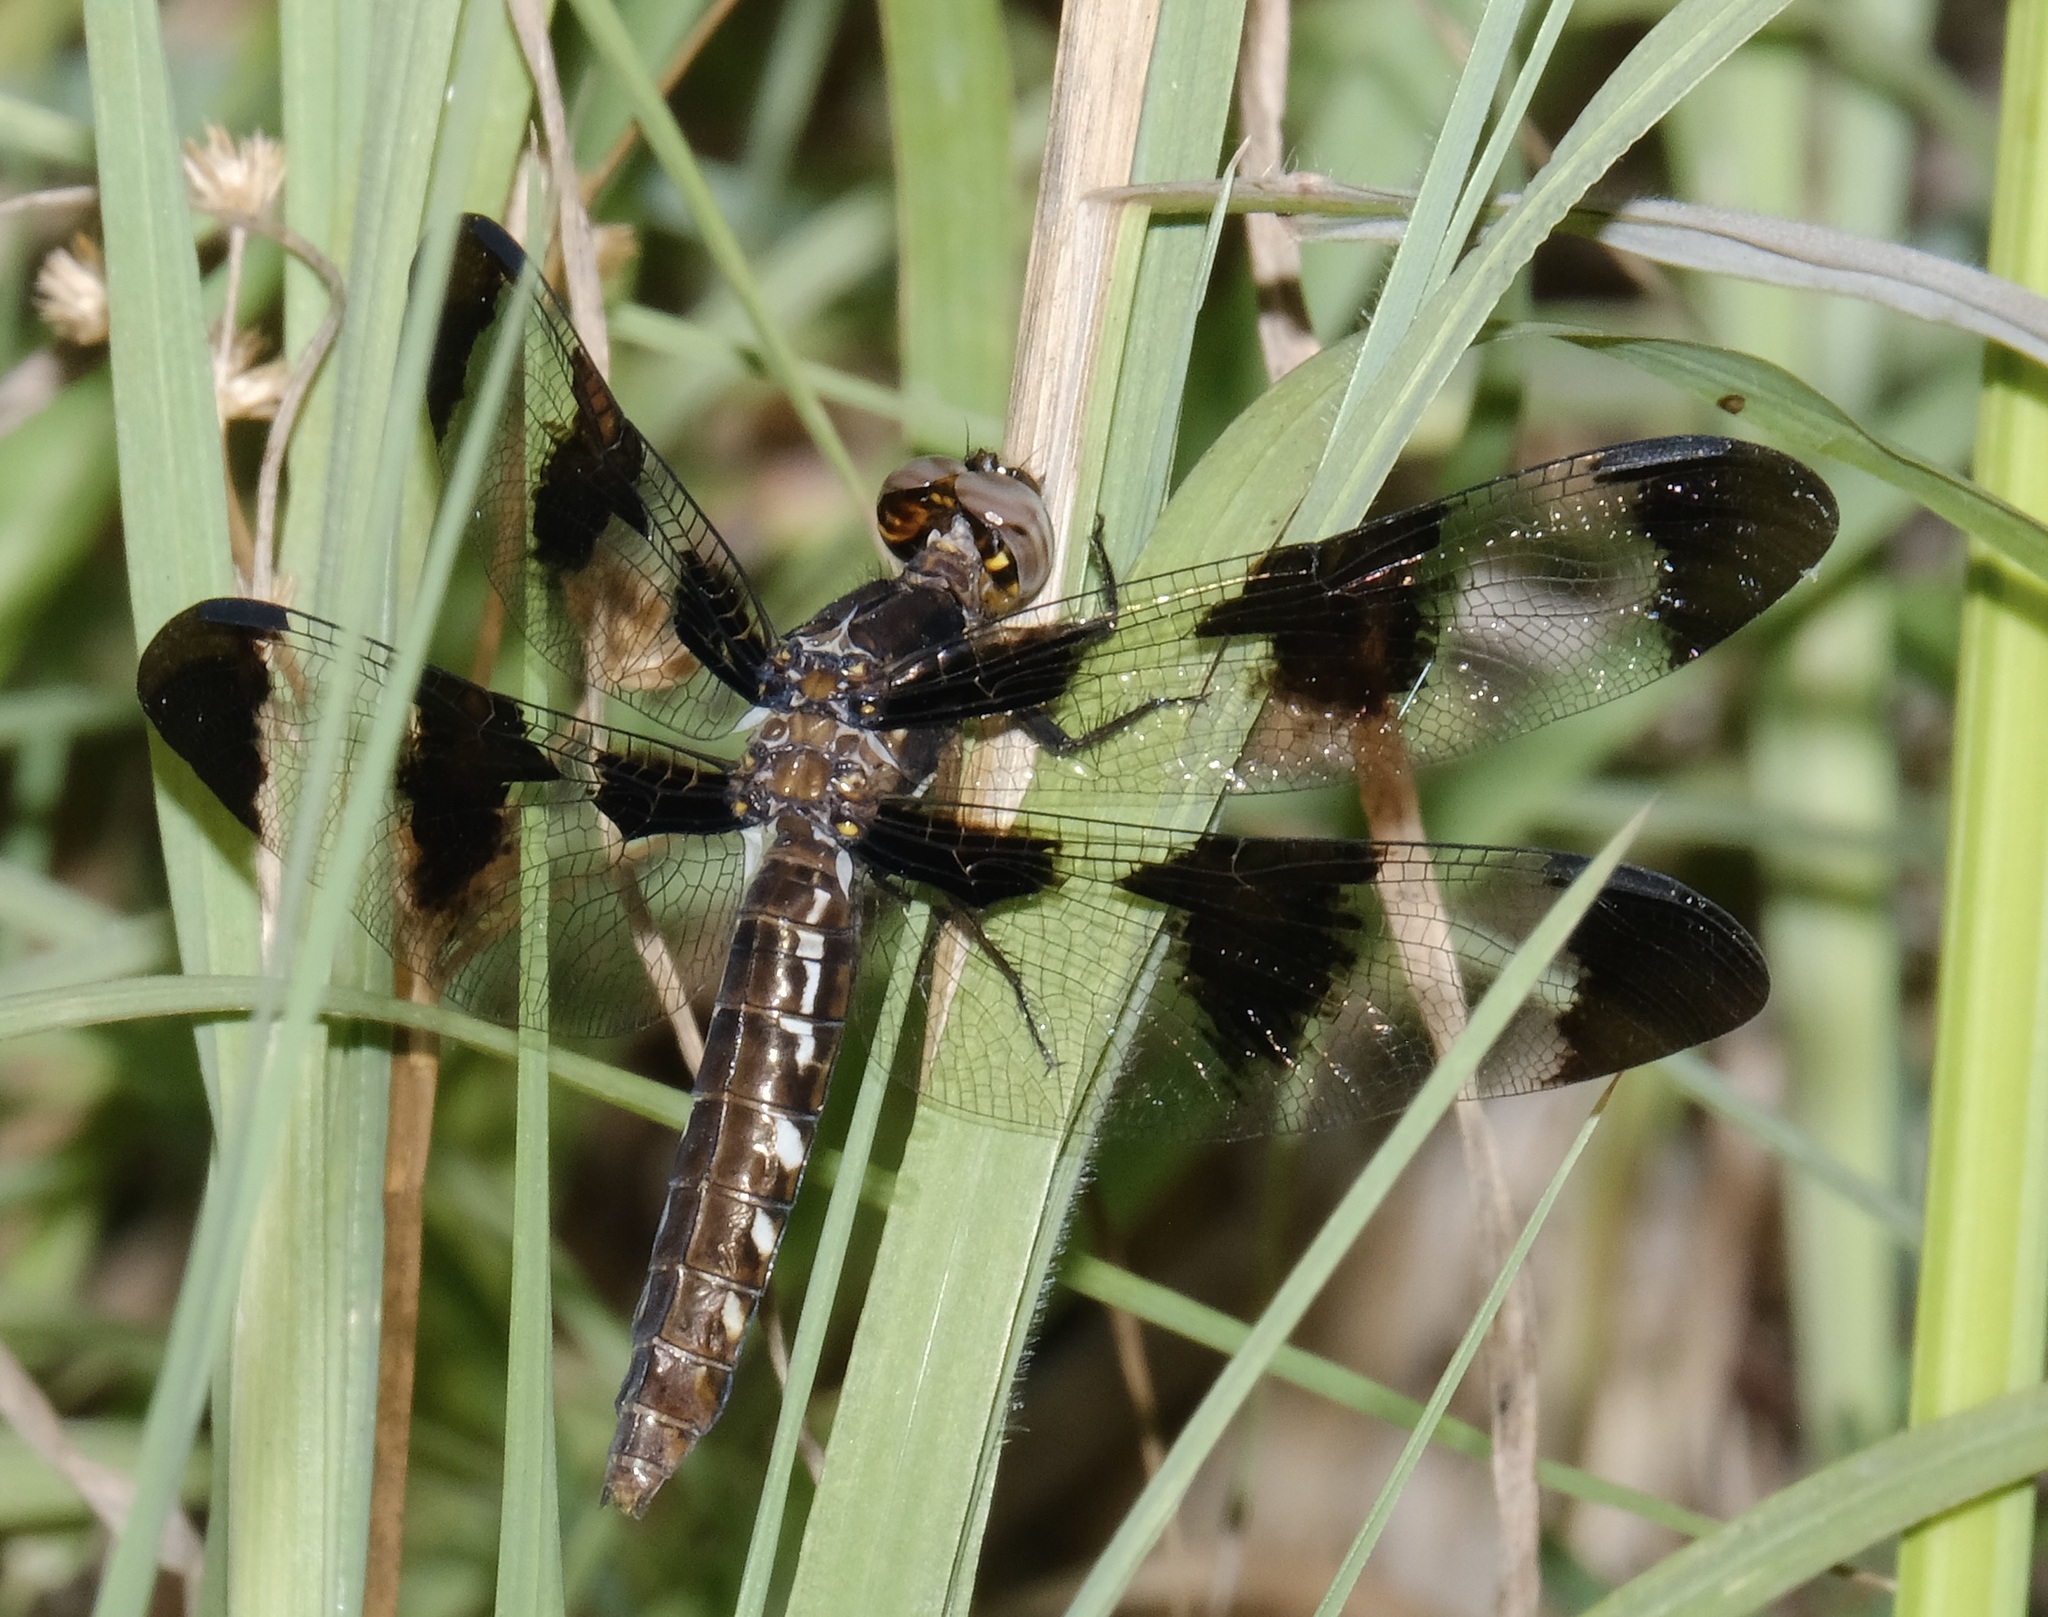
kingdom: Animalia
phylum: Arthropoda
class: Insecta
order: Odonata
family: Libellulidae
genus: Plathemis
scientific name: Plathemis lydia
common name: Common whitetail
